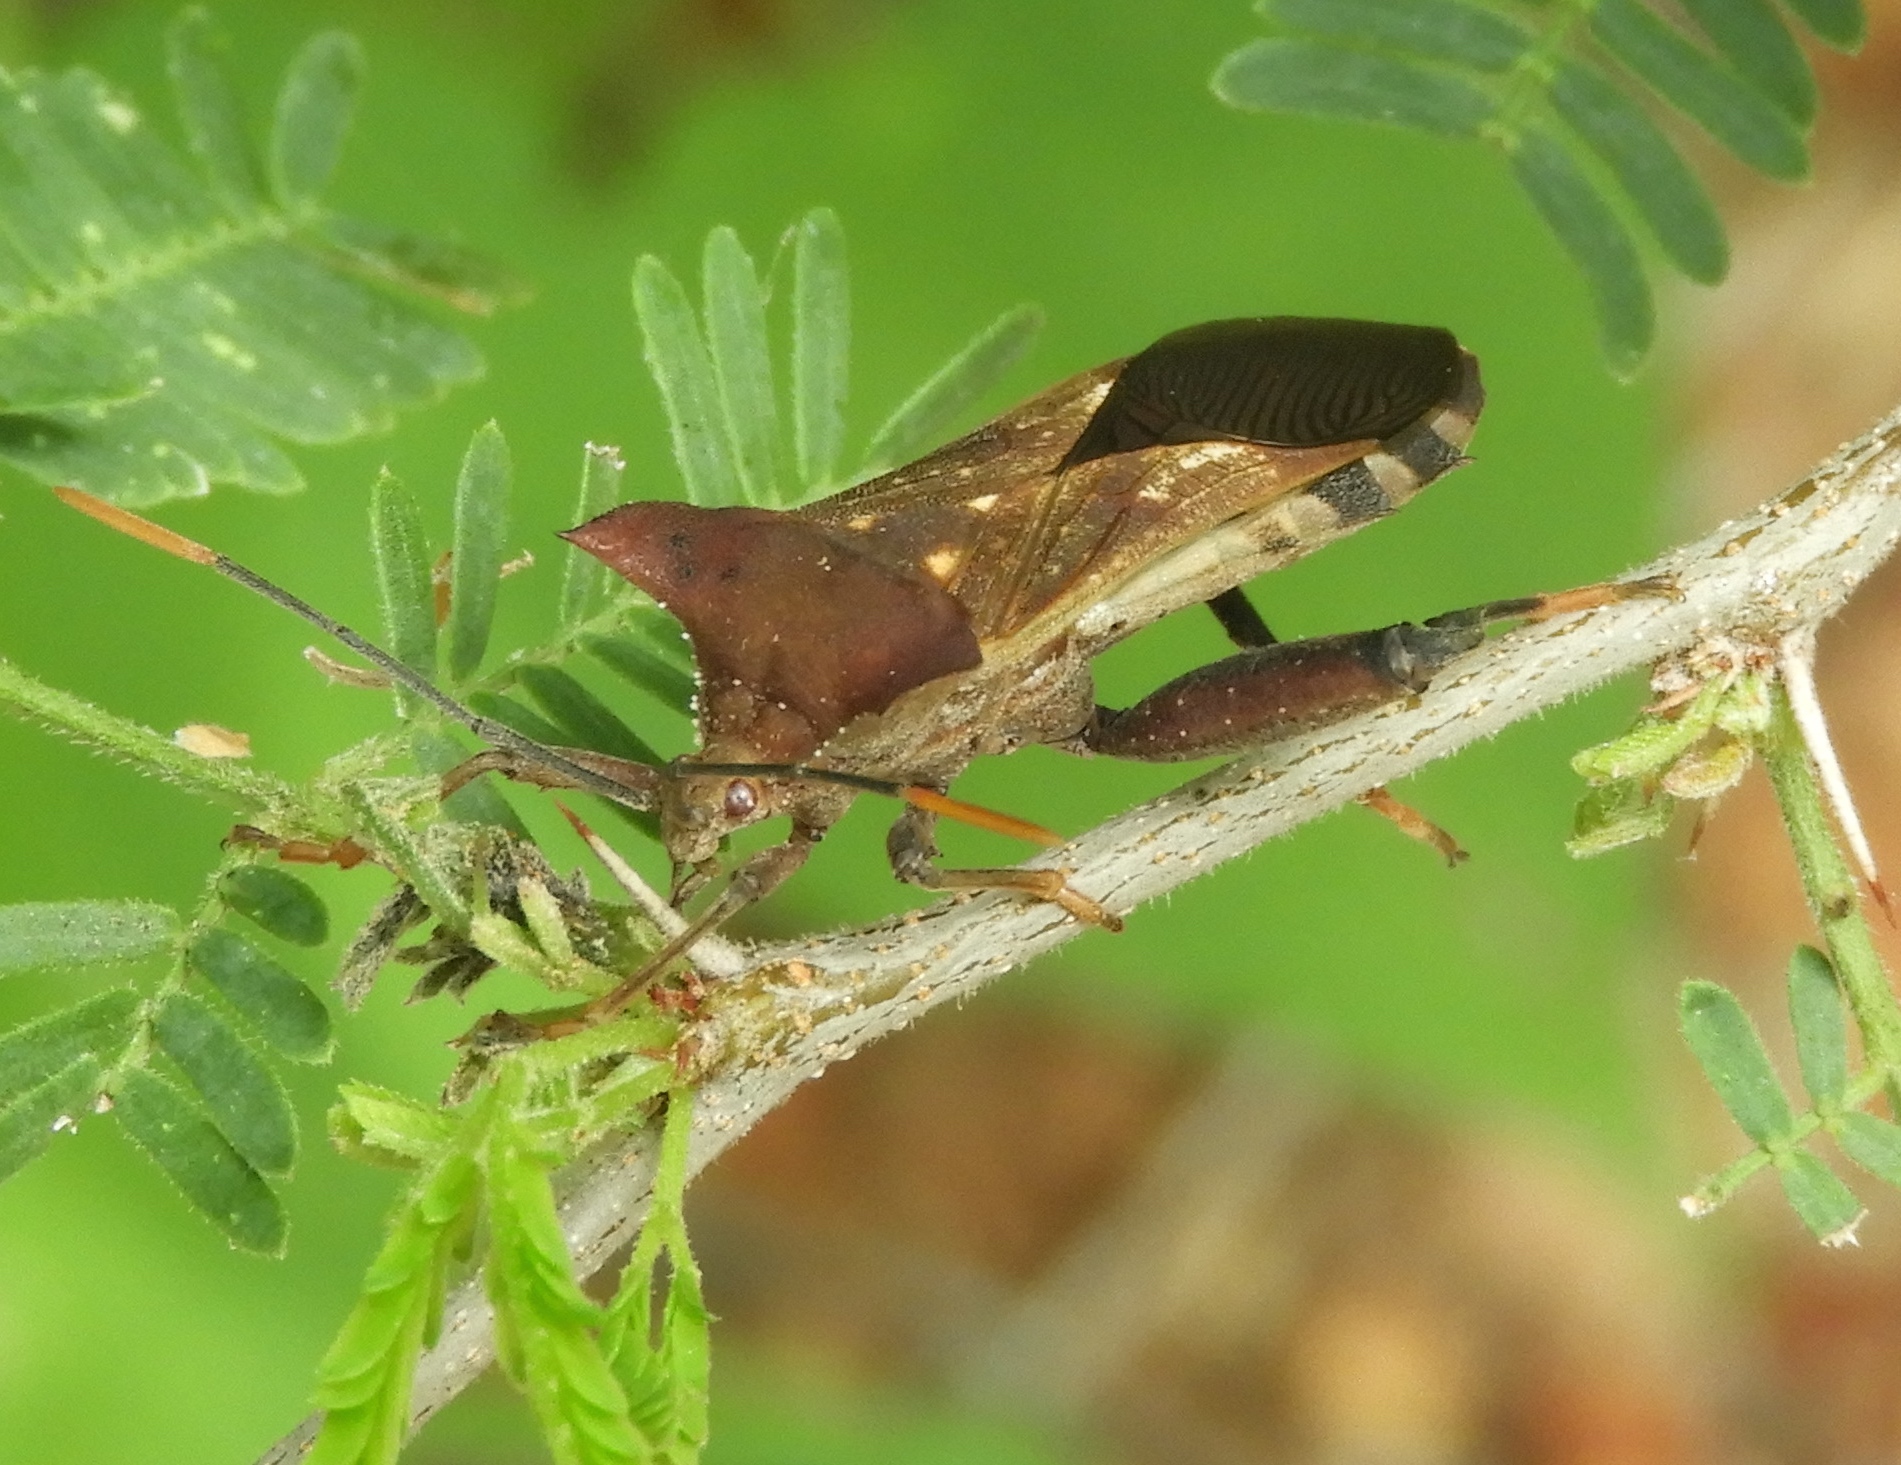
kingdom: Animalia
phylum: Arthropoda
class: Insecta
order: Hemiptera
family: Coreidae
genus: Mozena
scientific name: Mozena
